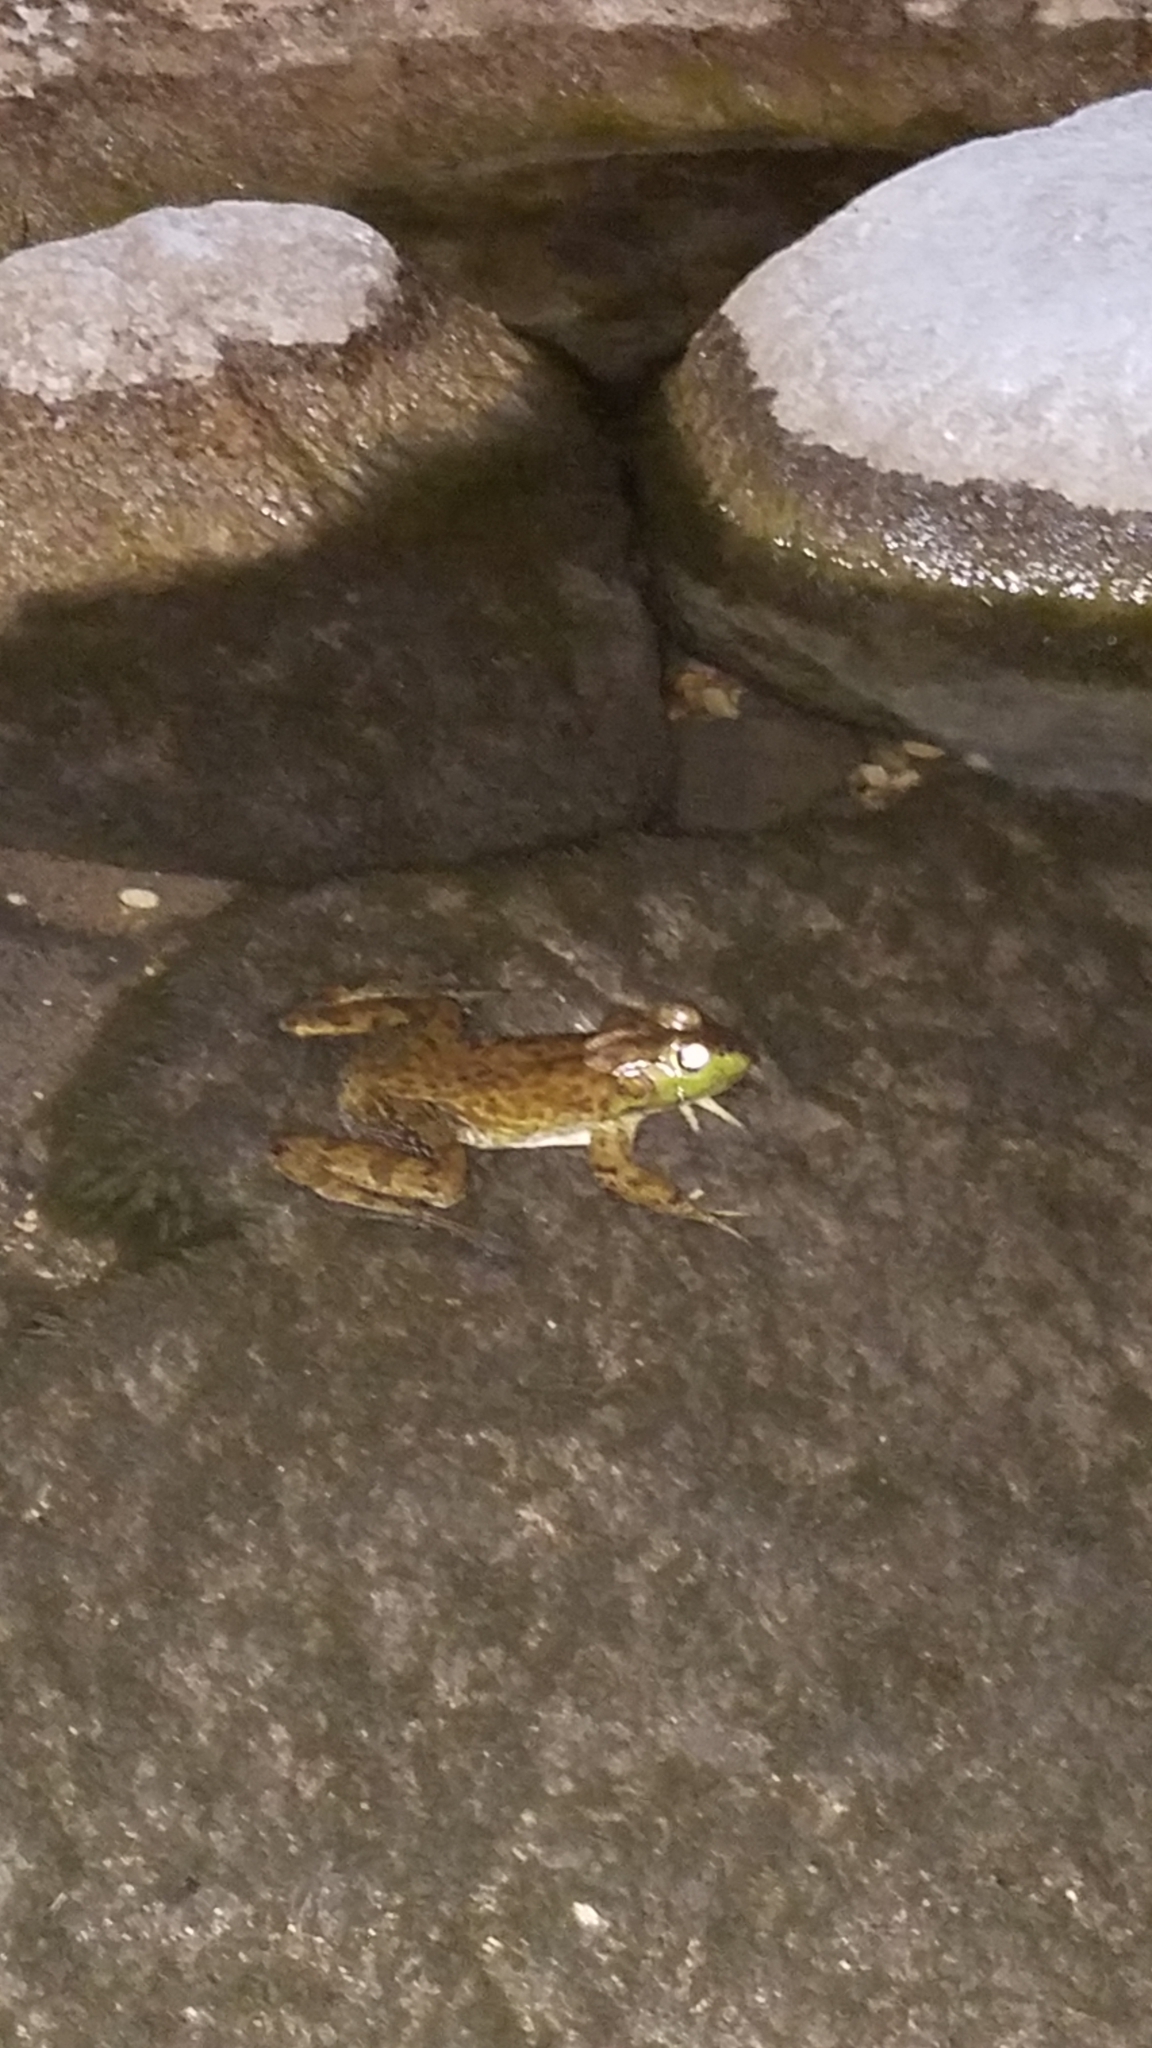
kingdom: Animalia
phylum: Chordata
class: Amphibia
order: Anura
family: Ranidae
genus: Lithobates
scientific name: Lithobates clamitans
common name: Green frog
